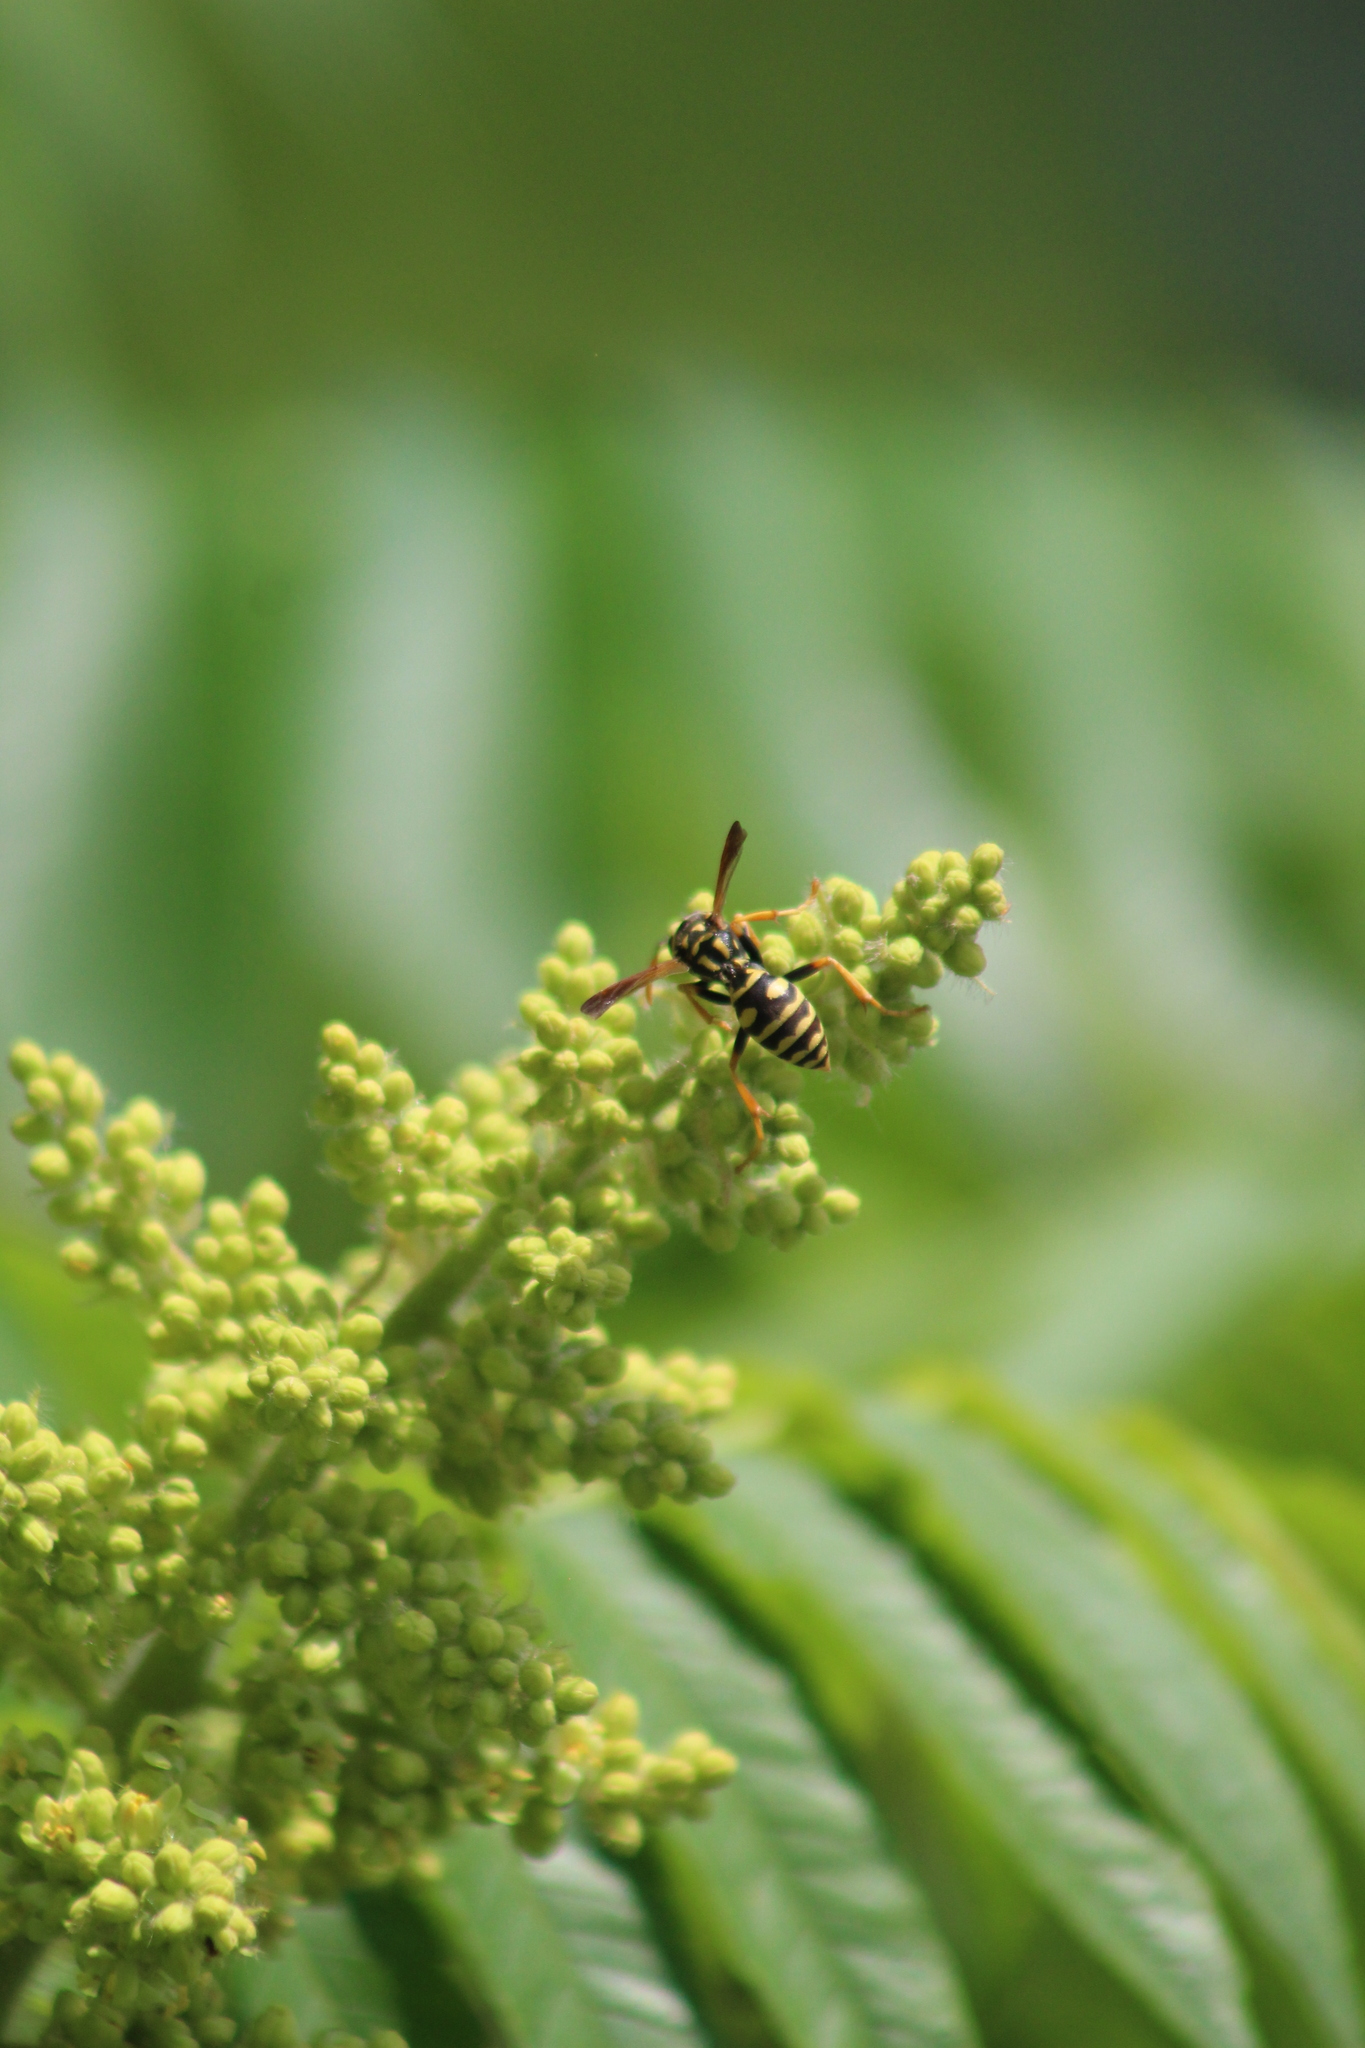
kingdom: Animalia
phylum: Arthropoda
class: Insecta
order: Hymenoptera
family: Eumenidae
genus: Polistes
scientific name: Polistes dominula
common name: Paper wasp
